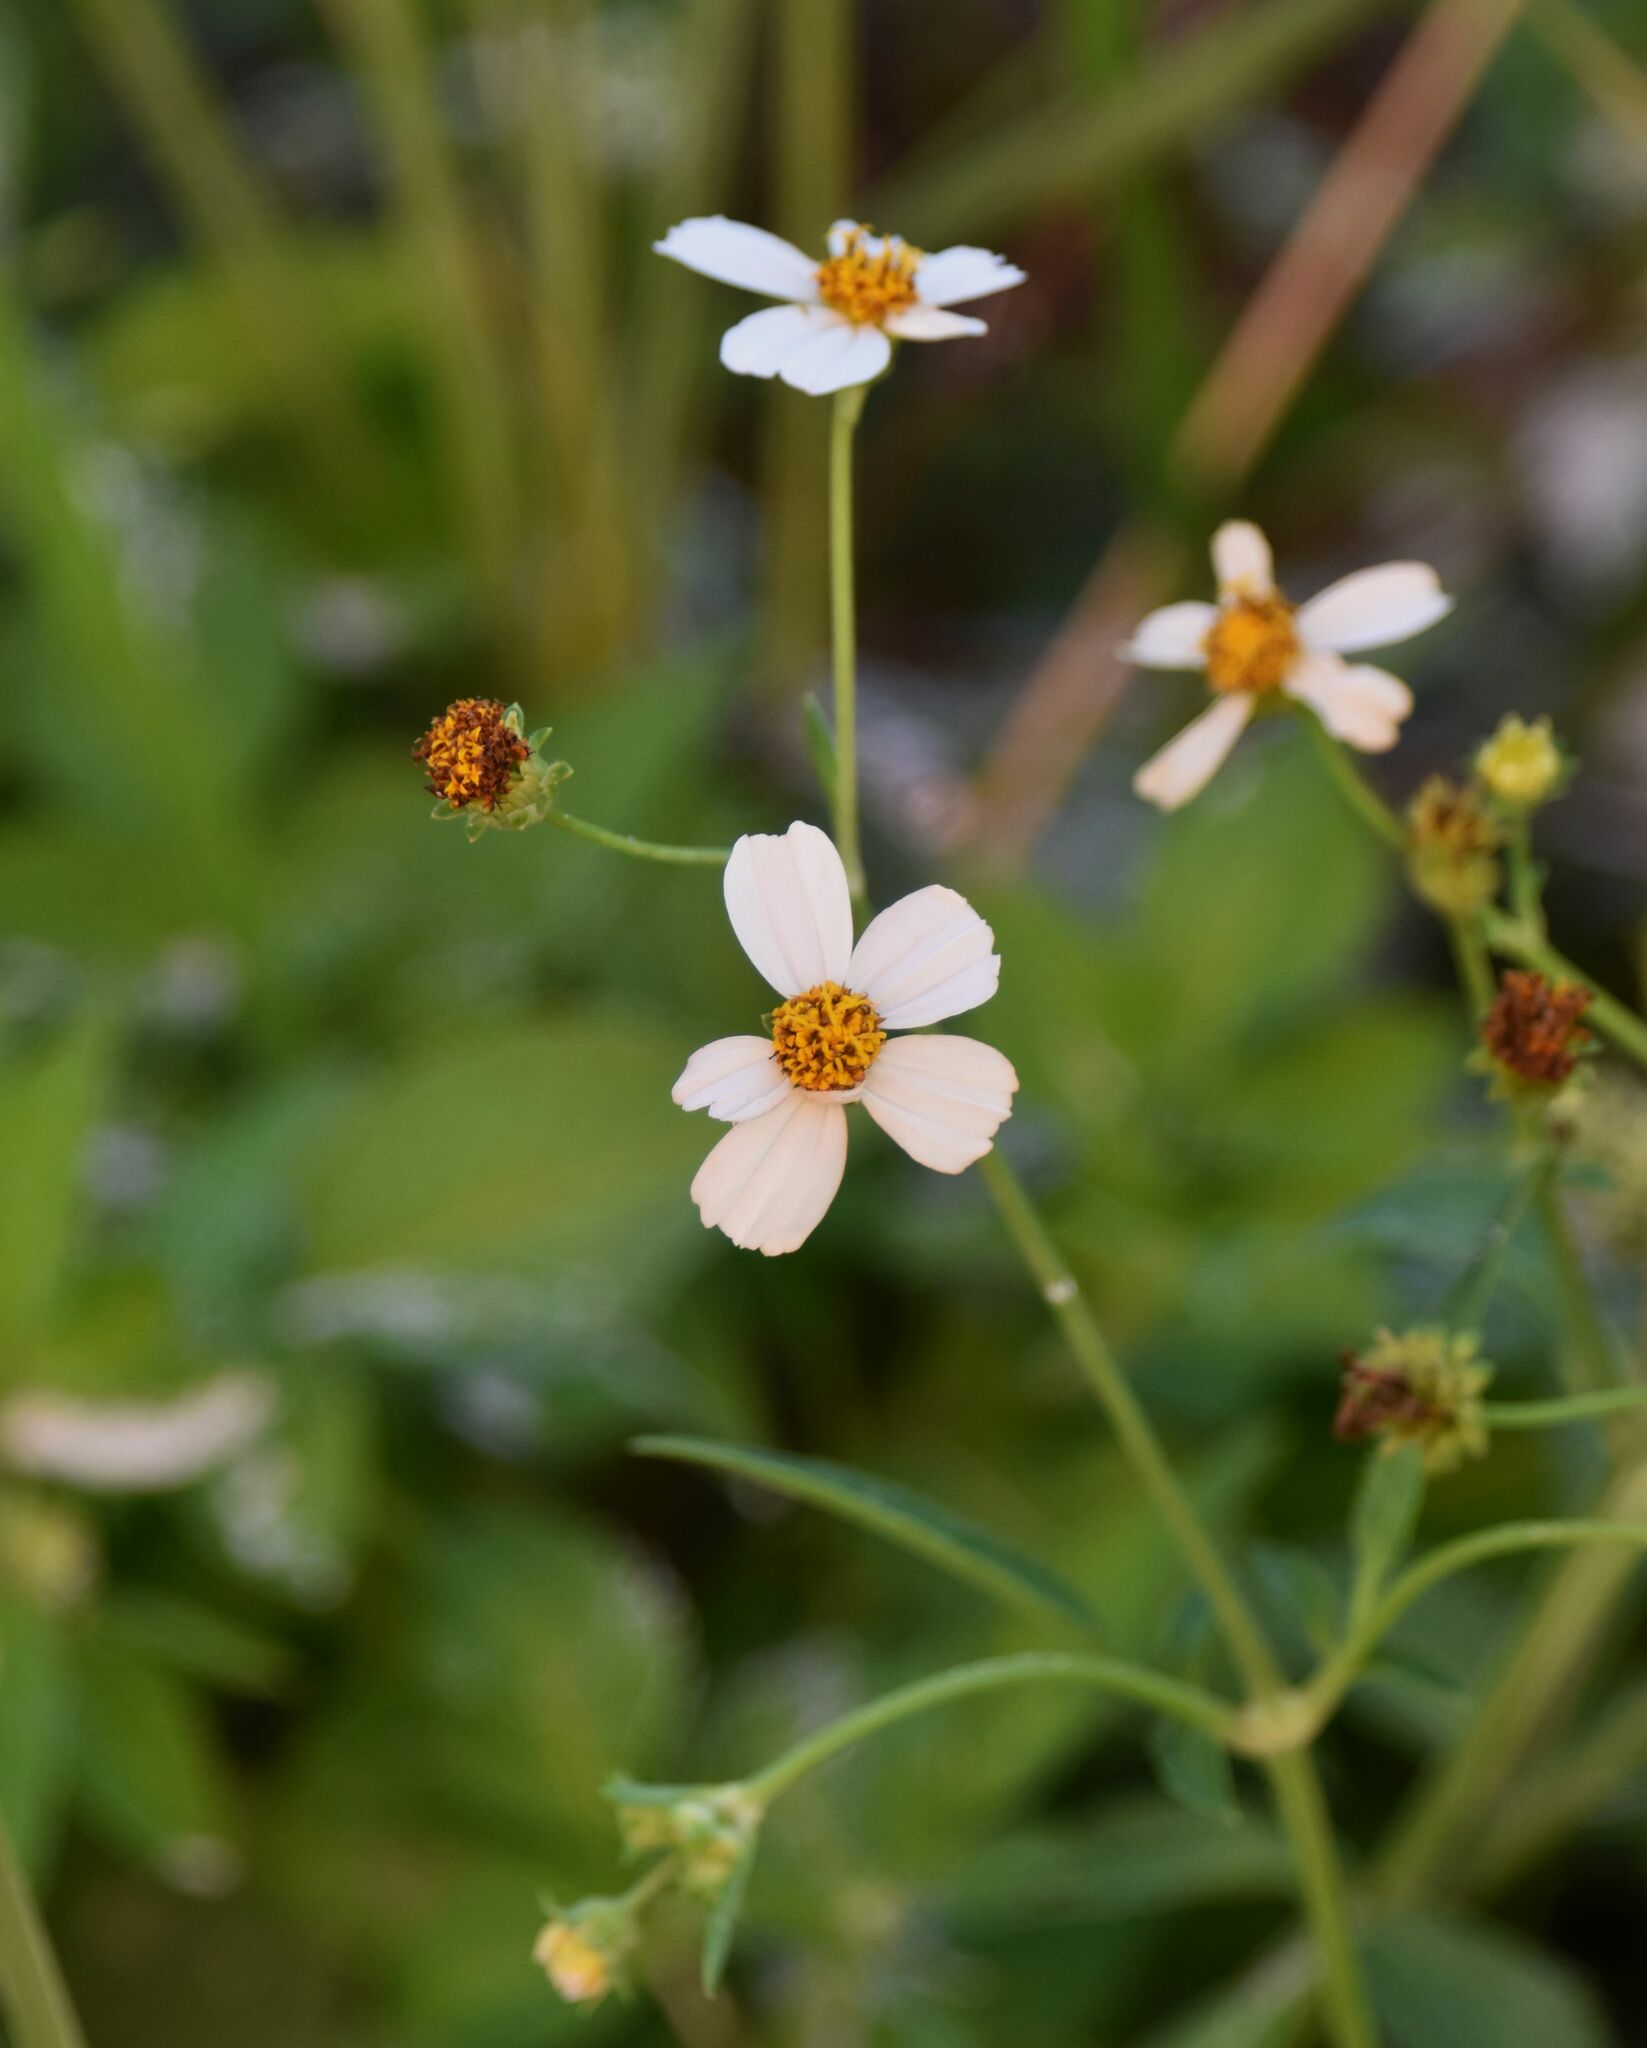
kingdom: Plantae
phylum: Tracheophyta
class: Magnoliopsida
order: Asterales
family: Asteraceae
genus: Bidens
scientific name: Bidens alba
